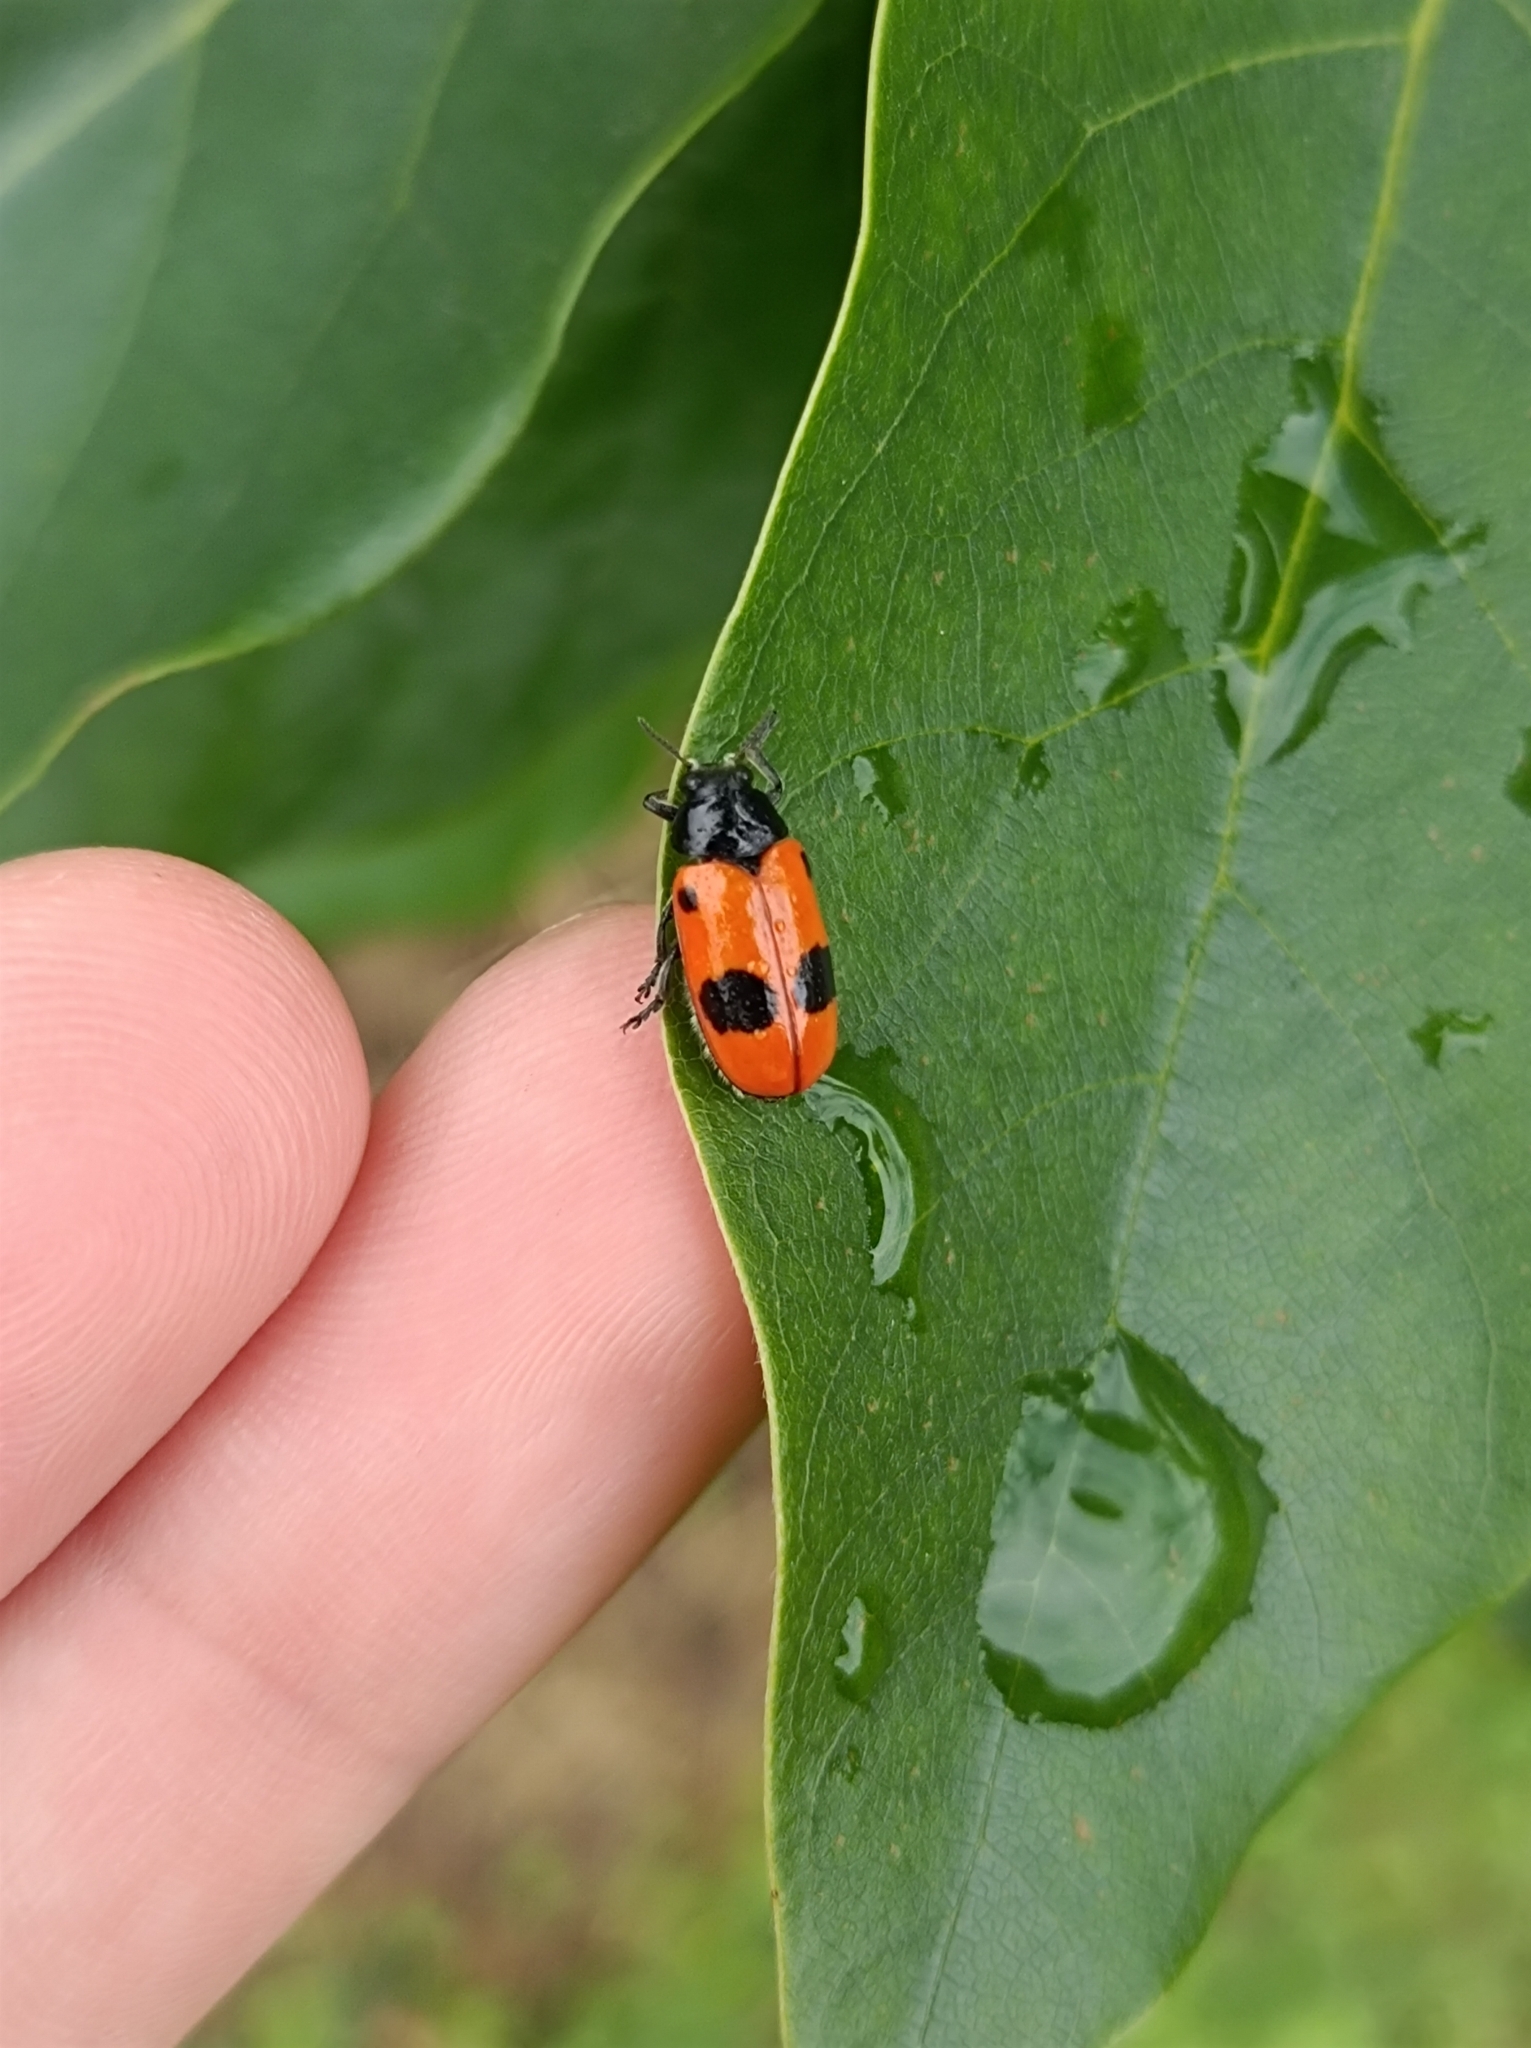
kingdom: Animalia
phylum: Arthropoda
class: Insecta
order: Coleoptera
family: Chrysomelidae
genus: Clytra
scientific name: Clytra laeviuscula
